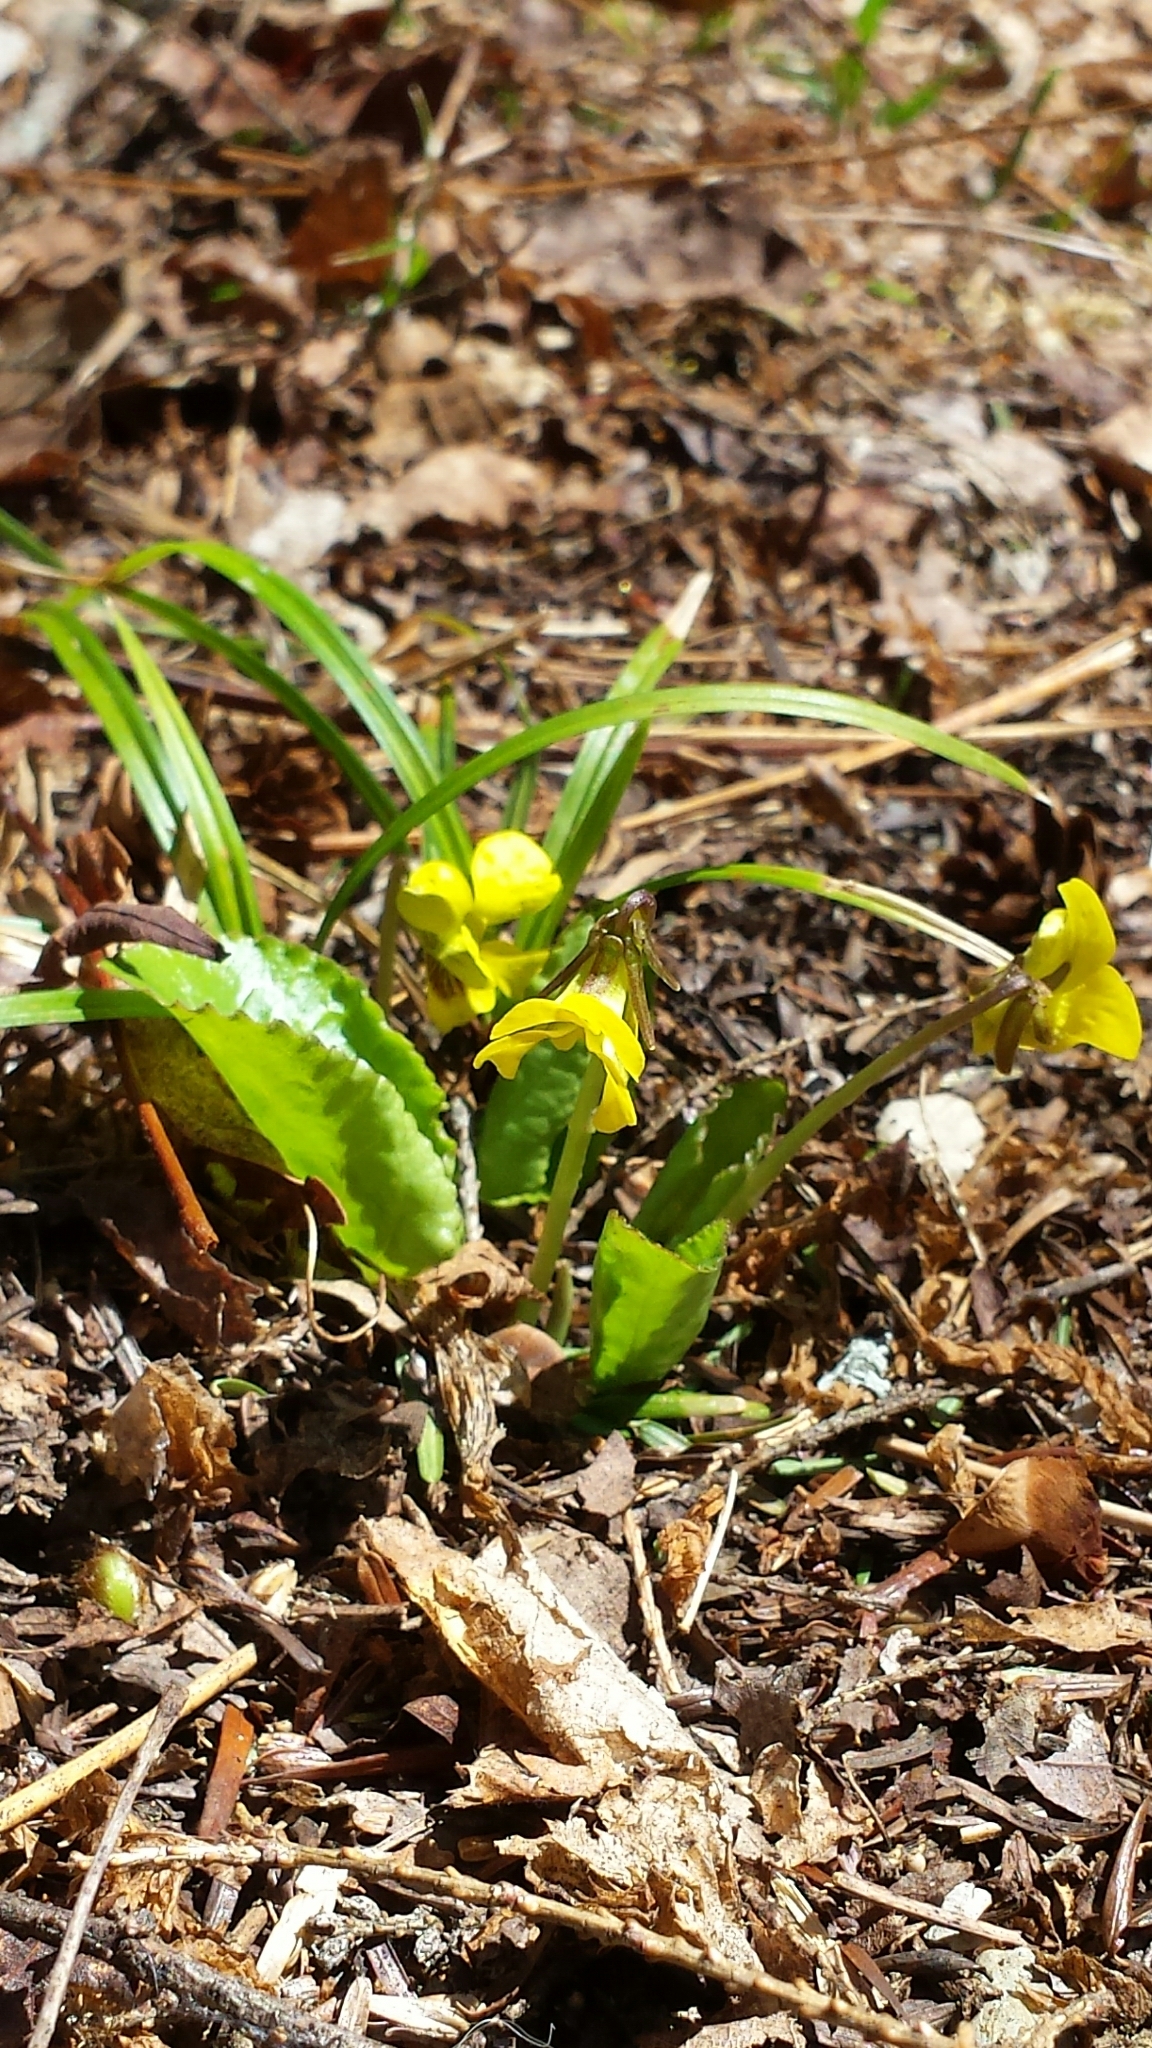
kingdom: Plantae
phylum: Tracheophyta
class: Magnoliopsida
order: Malpighiales
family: Violaceae
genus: Viola
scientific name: Viola rotundifolia
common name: Early yellow violet
